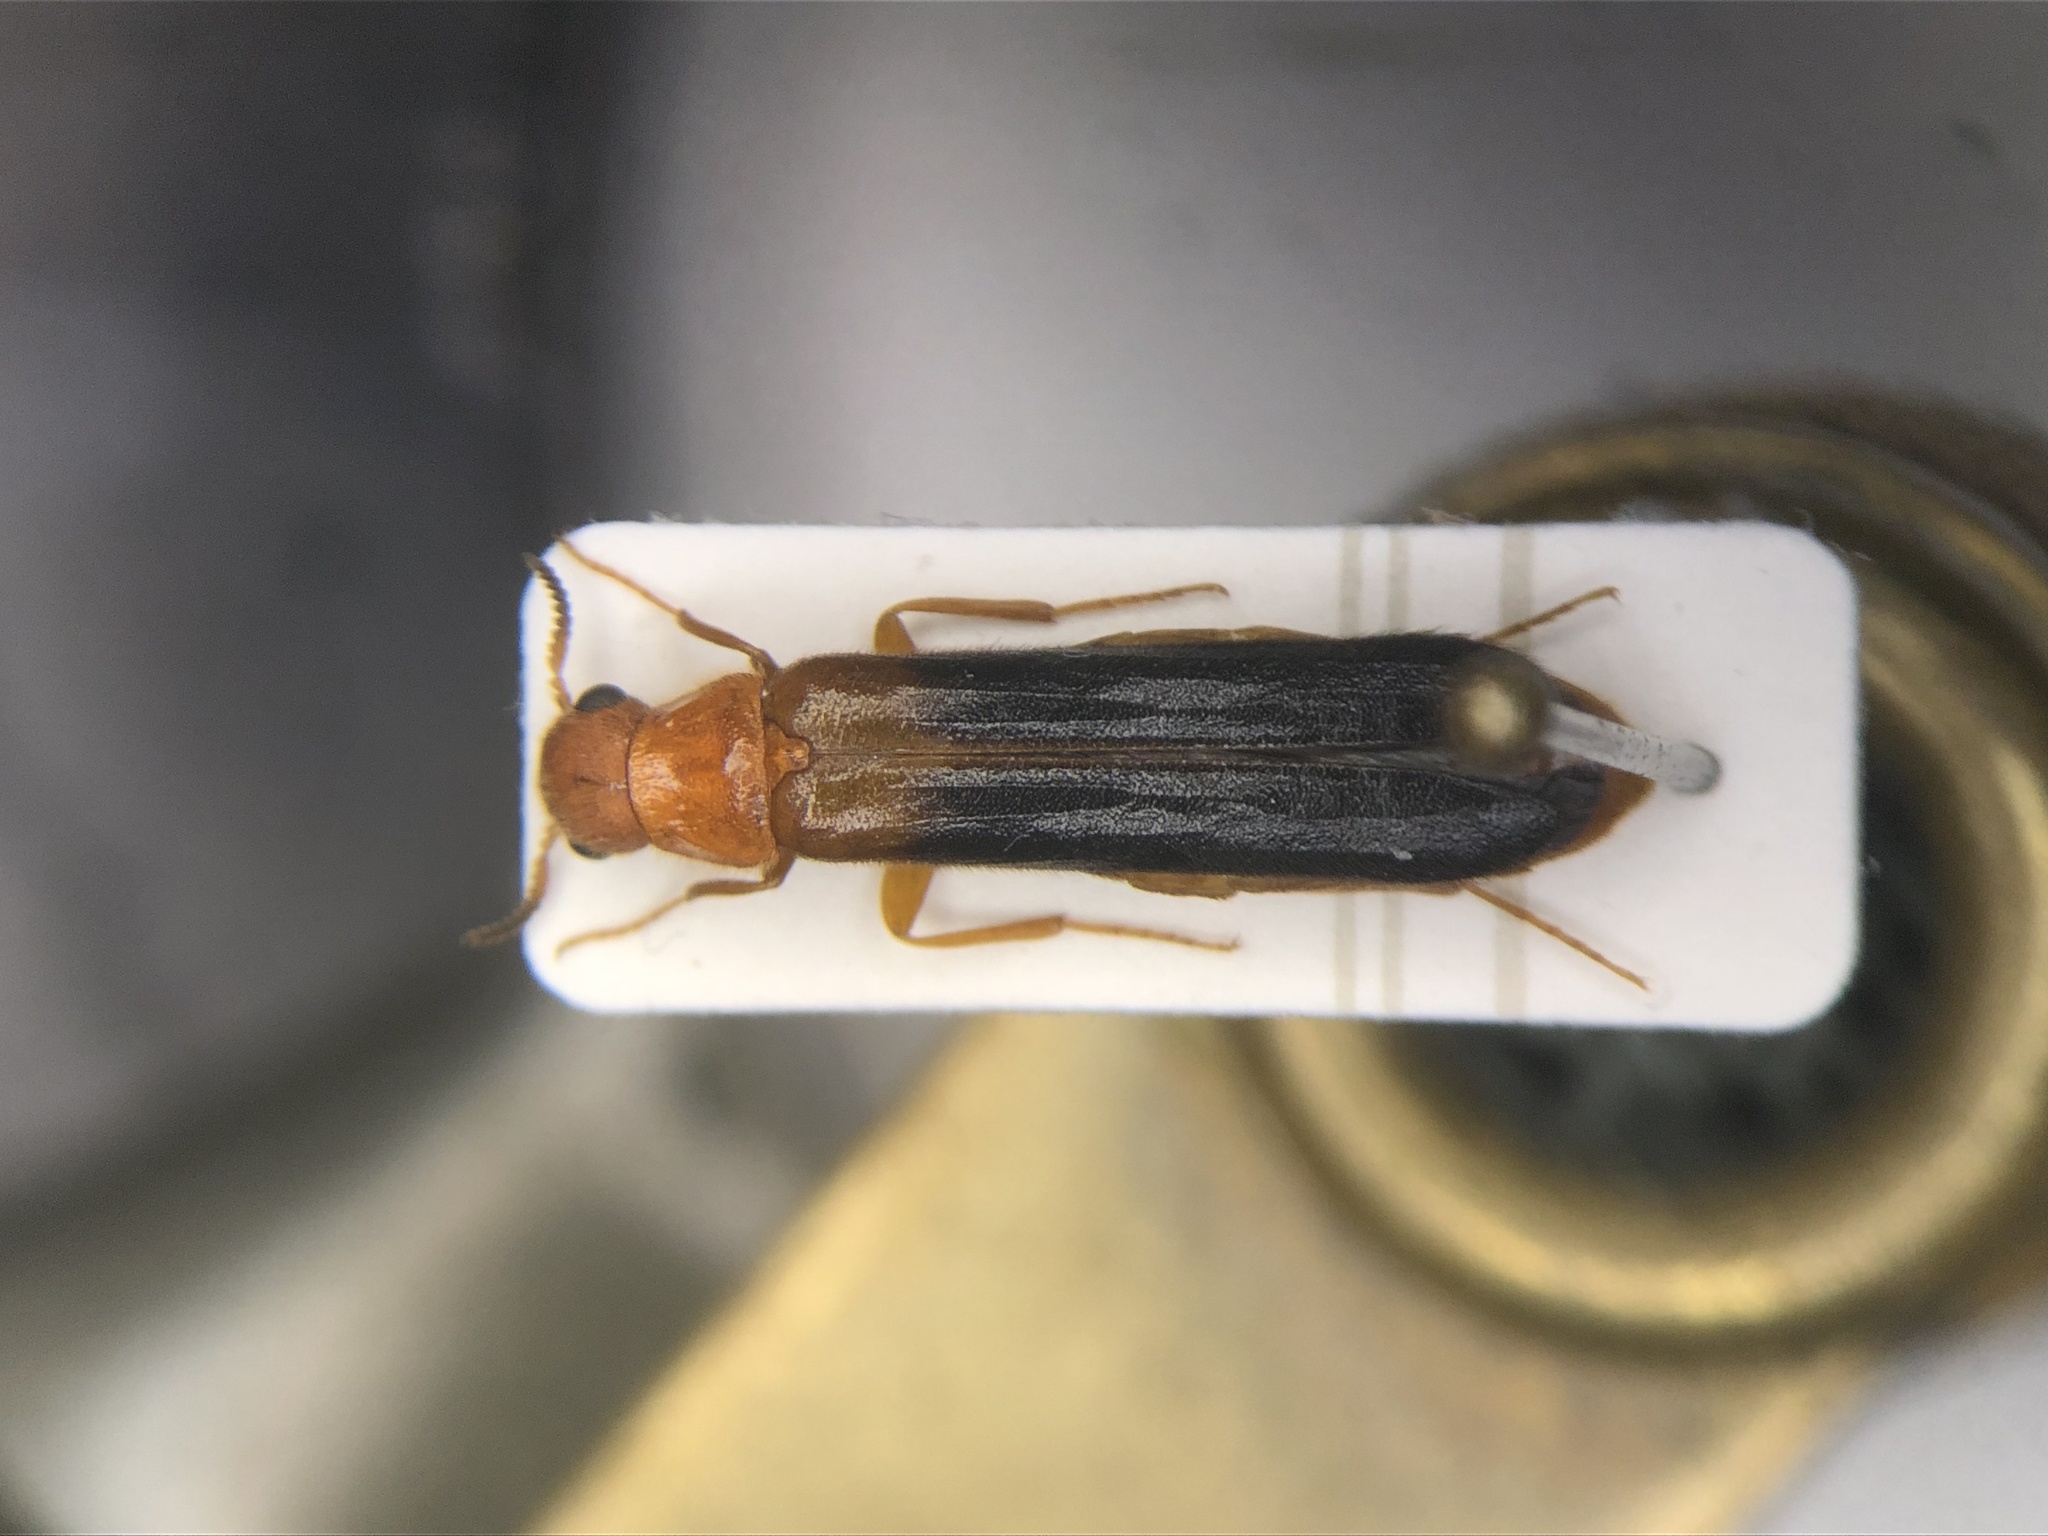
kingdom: Animalia
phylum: Arthropoda
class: Insecta
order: Coleoptera
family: Lymexylidae
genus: Elateroides
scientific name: Elateroides lugubris
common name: Sapwood timberworm
